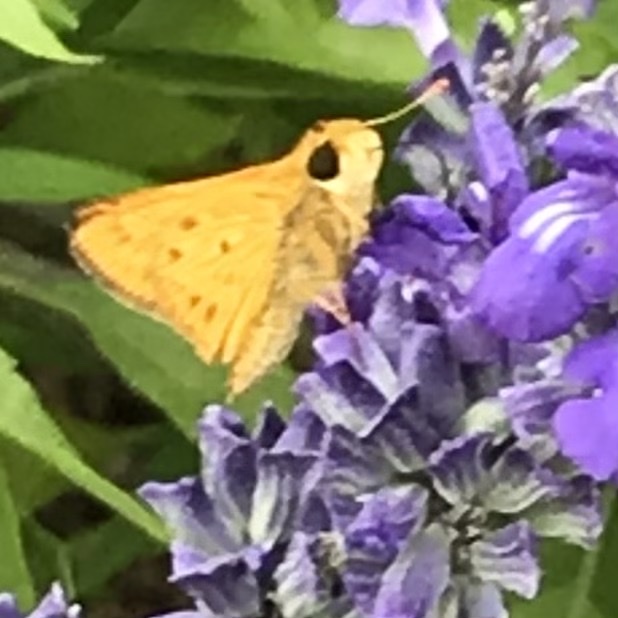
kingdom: Animalia
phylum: Arthropoda
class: Insecta
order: Lepidoptera
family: Hesperiidae
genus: Hylephila
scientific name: Hylephila phyleus
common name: Fiery skipper
